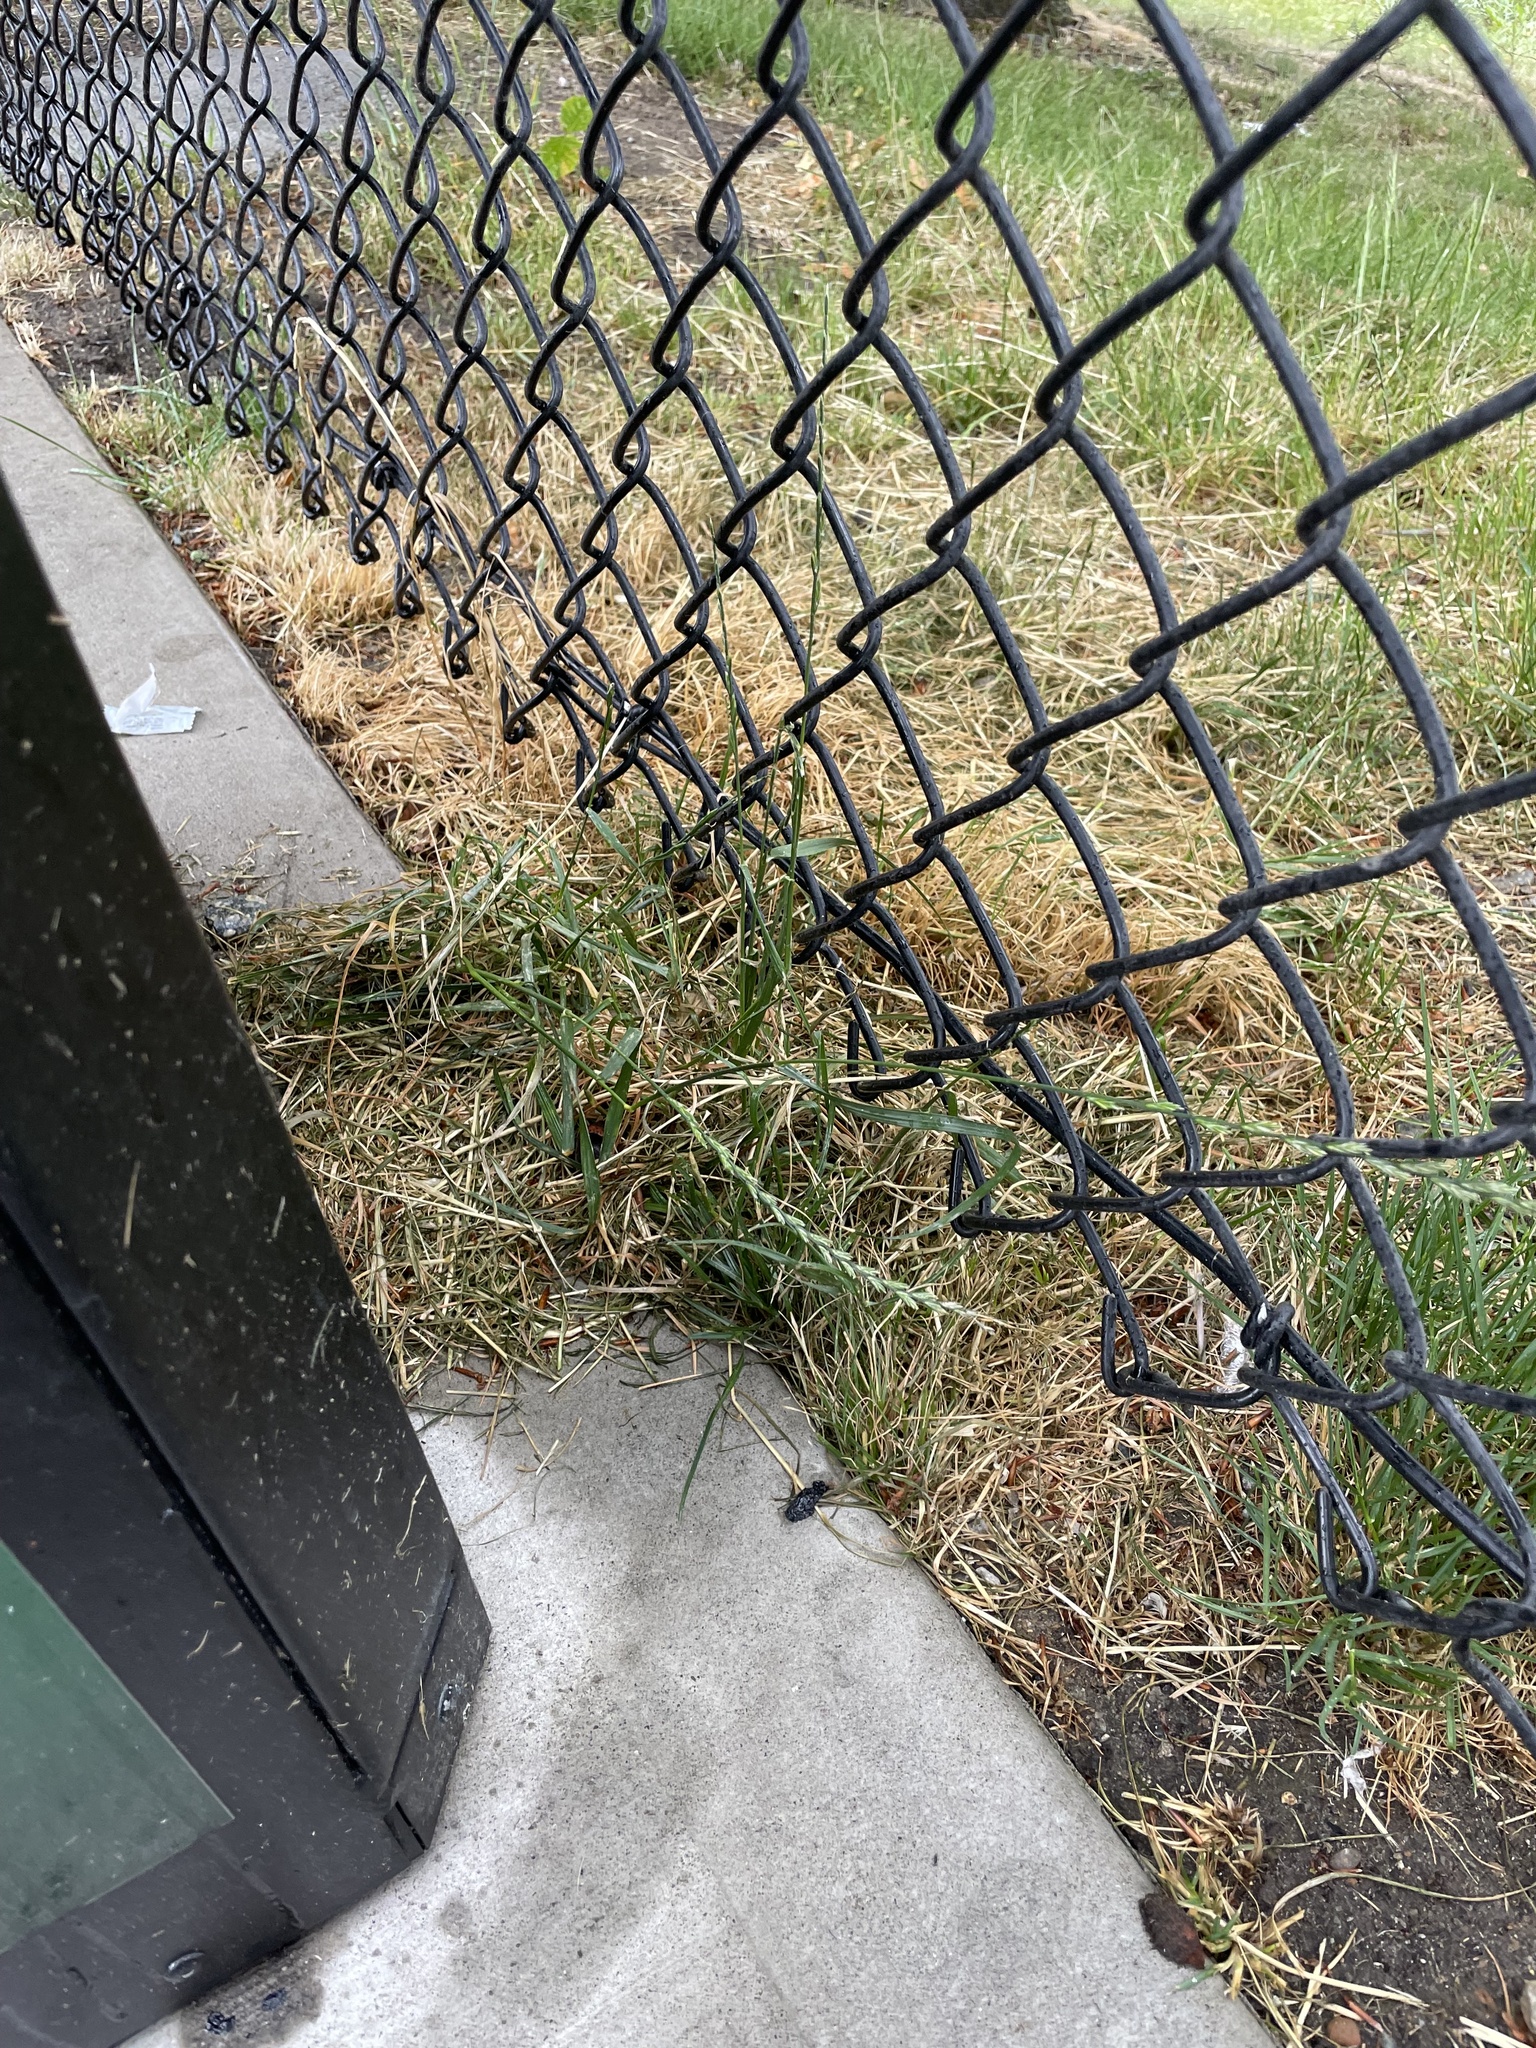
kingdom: Plantae
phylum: Tracheophyta
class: Liliopsida
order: Poales
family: Poaceae
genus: Lolium
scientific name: Lolium perenne
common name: Perennial ryegrass
